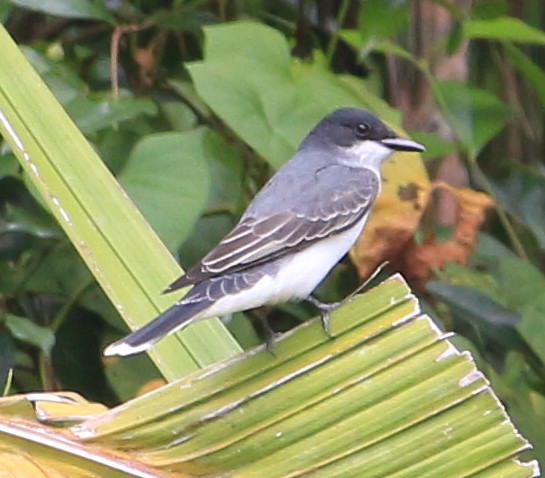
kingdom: Animalia
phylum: Chordata
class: Aves
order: Passeriformes
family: Tyrannidae
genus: Tyrannus
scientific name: Tyrannus tyrannus
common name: Eastern kingbird
